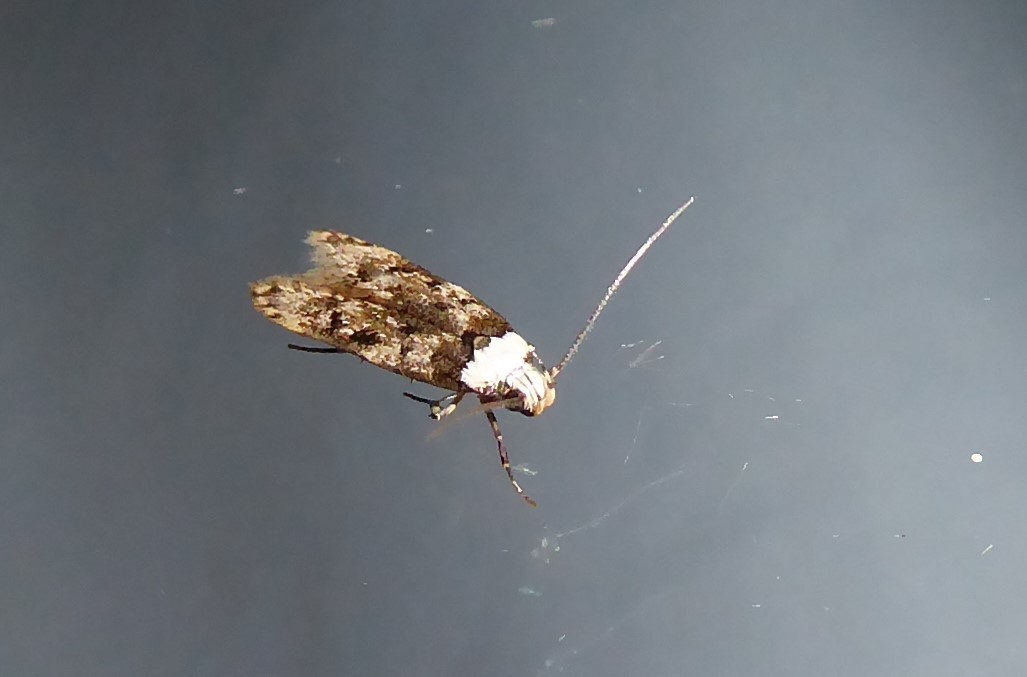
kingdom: Animalia
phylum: Arthropoda
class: Insecta
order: Lepidoptera
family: Oecophoridae
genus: Endrosis
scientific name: Endrosis sarcitrella
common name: White-shouldered house moth
